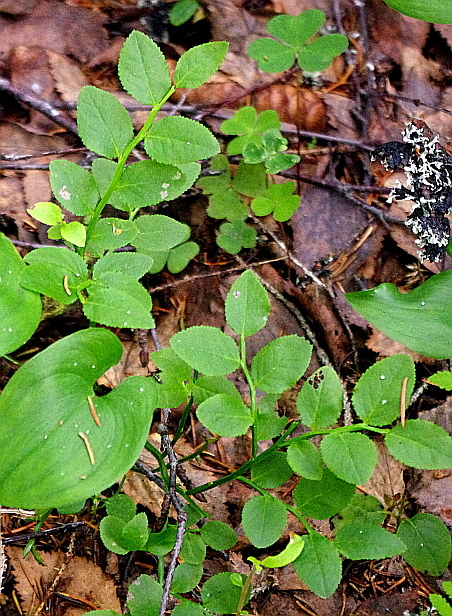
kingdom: Plantae
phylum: Tracheophyta
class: Magnoliopsida
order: Ericales
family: Ericaceae
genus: Vaccinium
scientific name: Vaccinium myrtillus
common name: Bilberry
